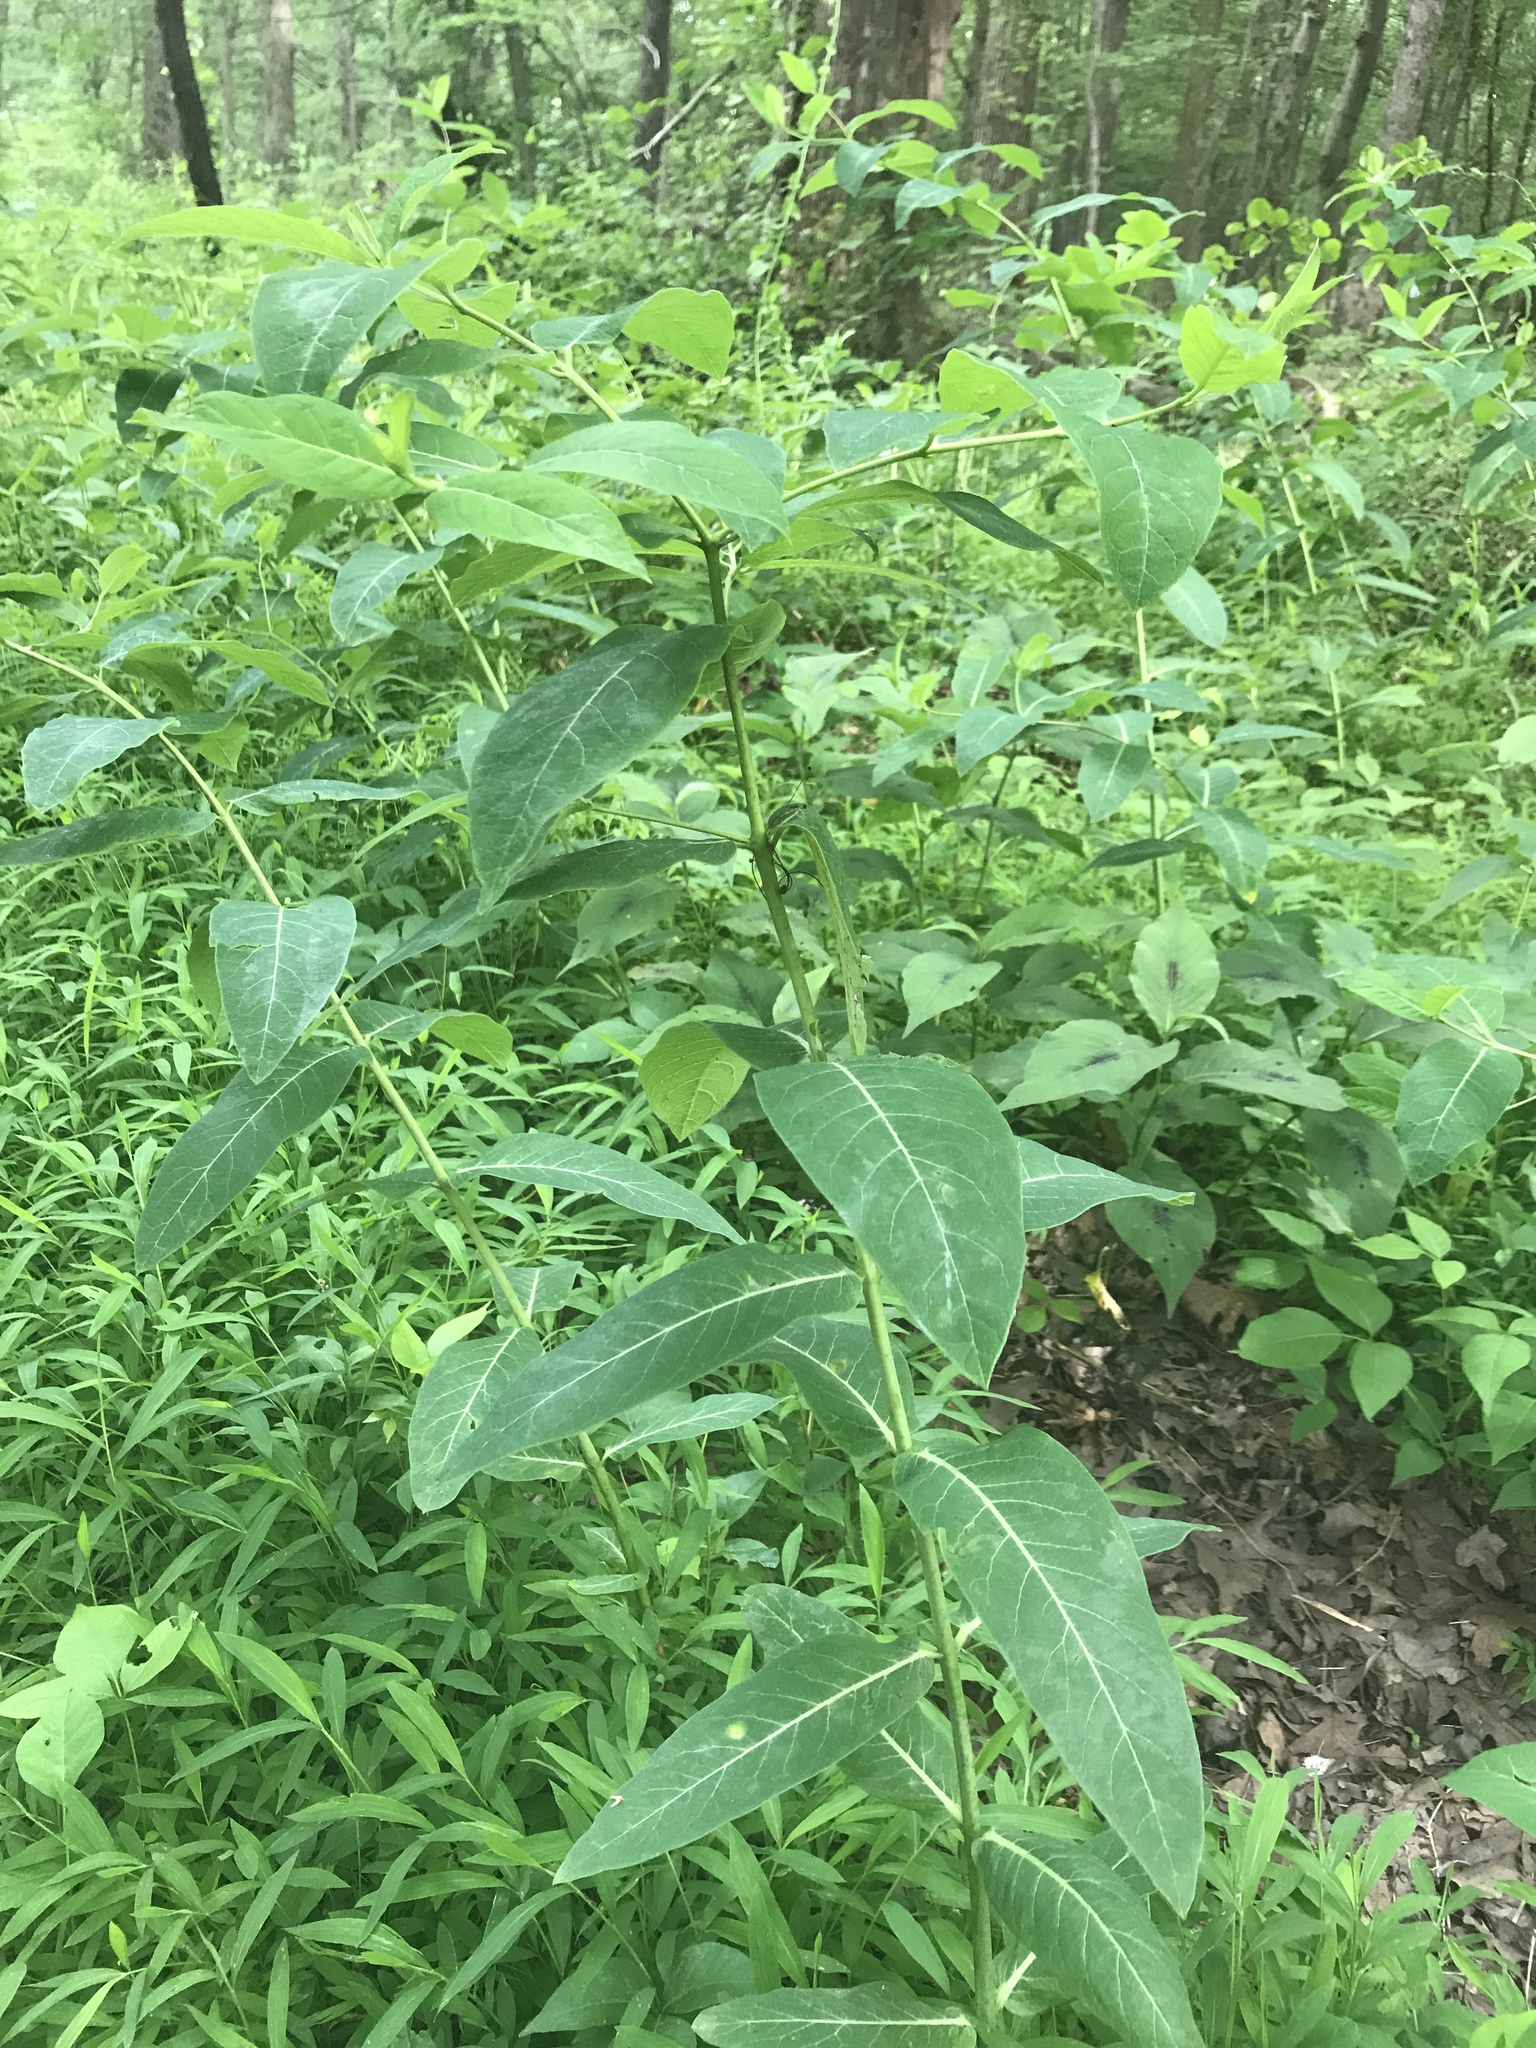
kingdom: Plantae
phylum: Tracheophyta
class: Magnoliopsida
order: Gentianales
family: Apocynaceae
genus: Apocynum
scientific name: Apocynum cannabinum
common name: Hemp dogbane
